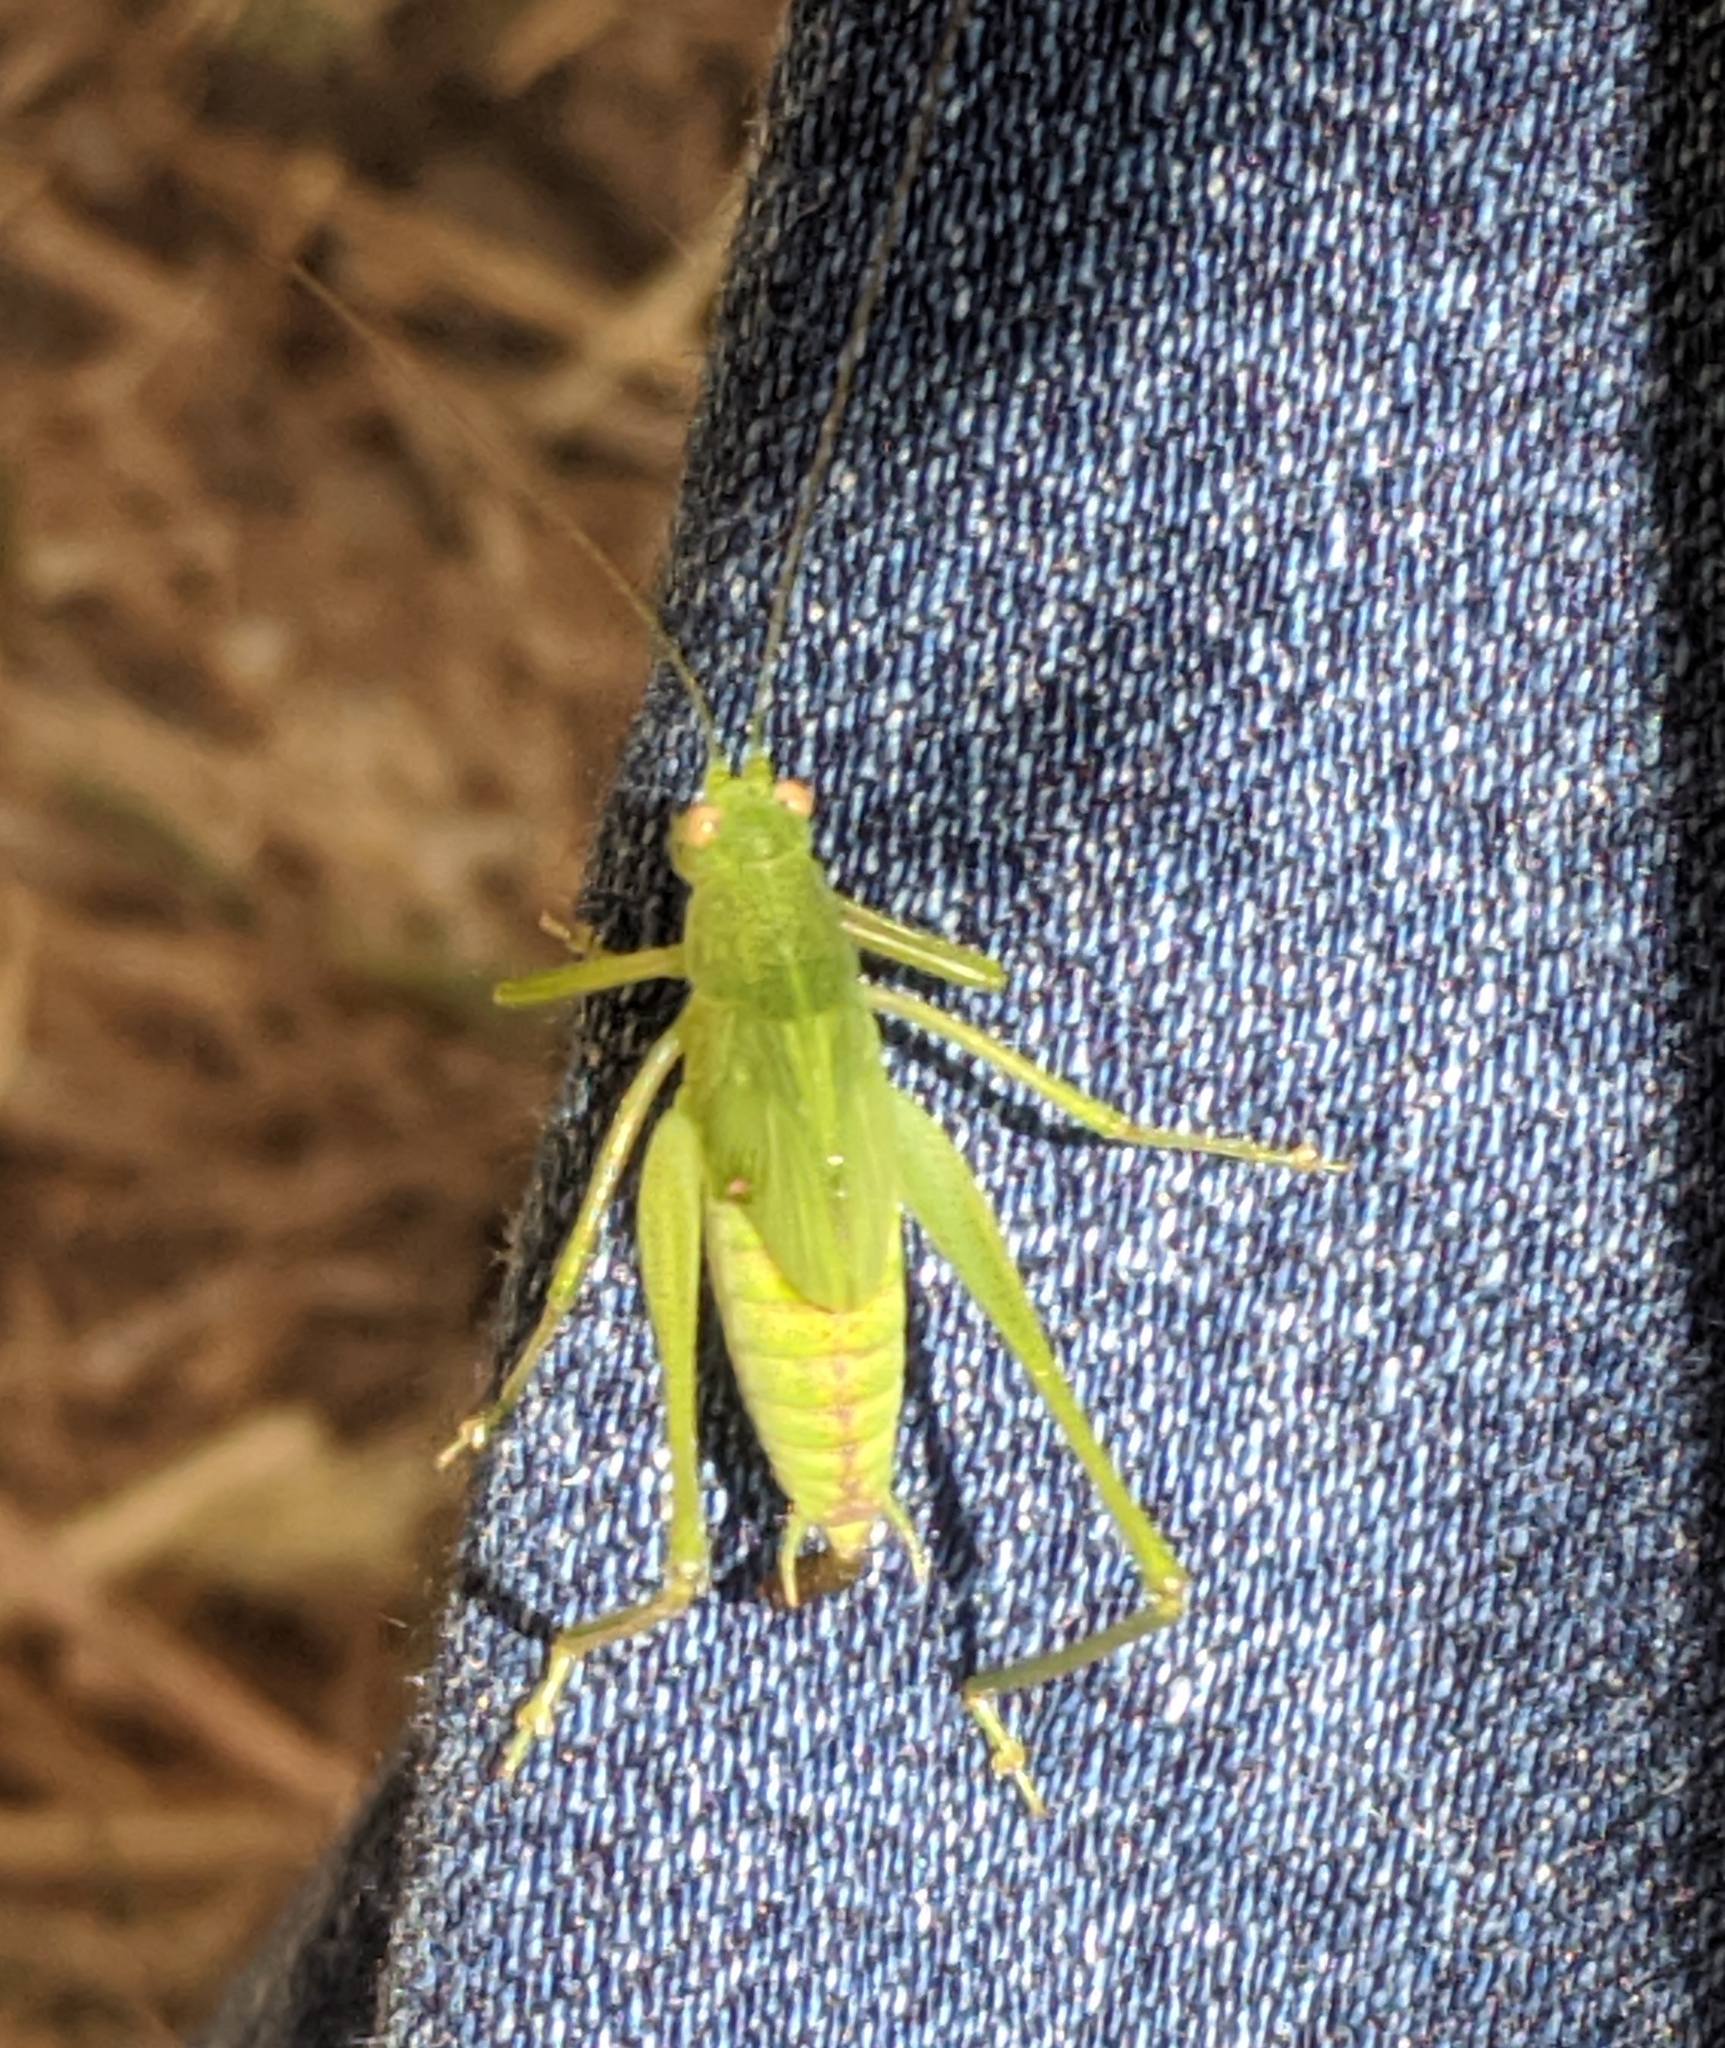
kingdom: Animalia
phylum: Arthropoda
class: Insecta
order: Orthoptera
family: Tettigoniidae
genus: Phaneroptera
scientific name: Phaneroptera nana
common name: Southern sickle bush-cricket
